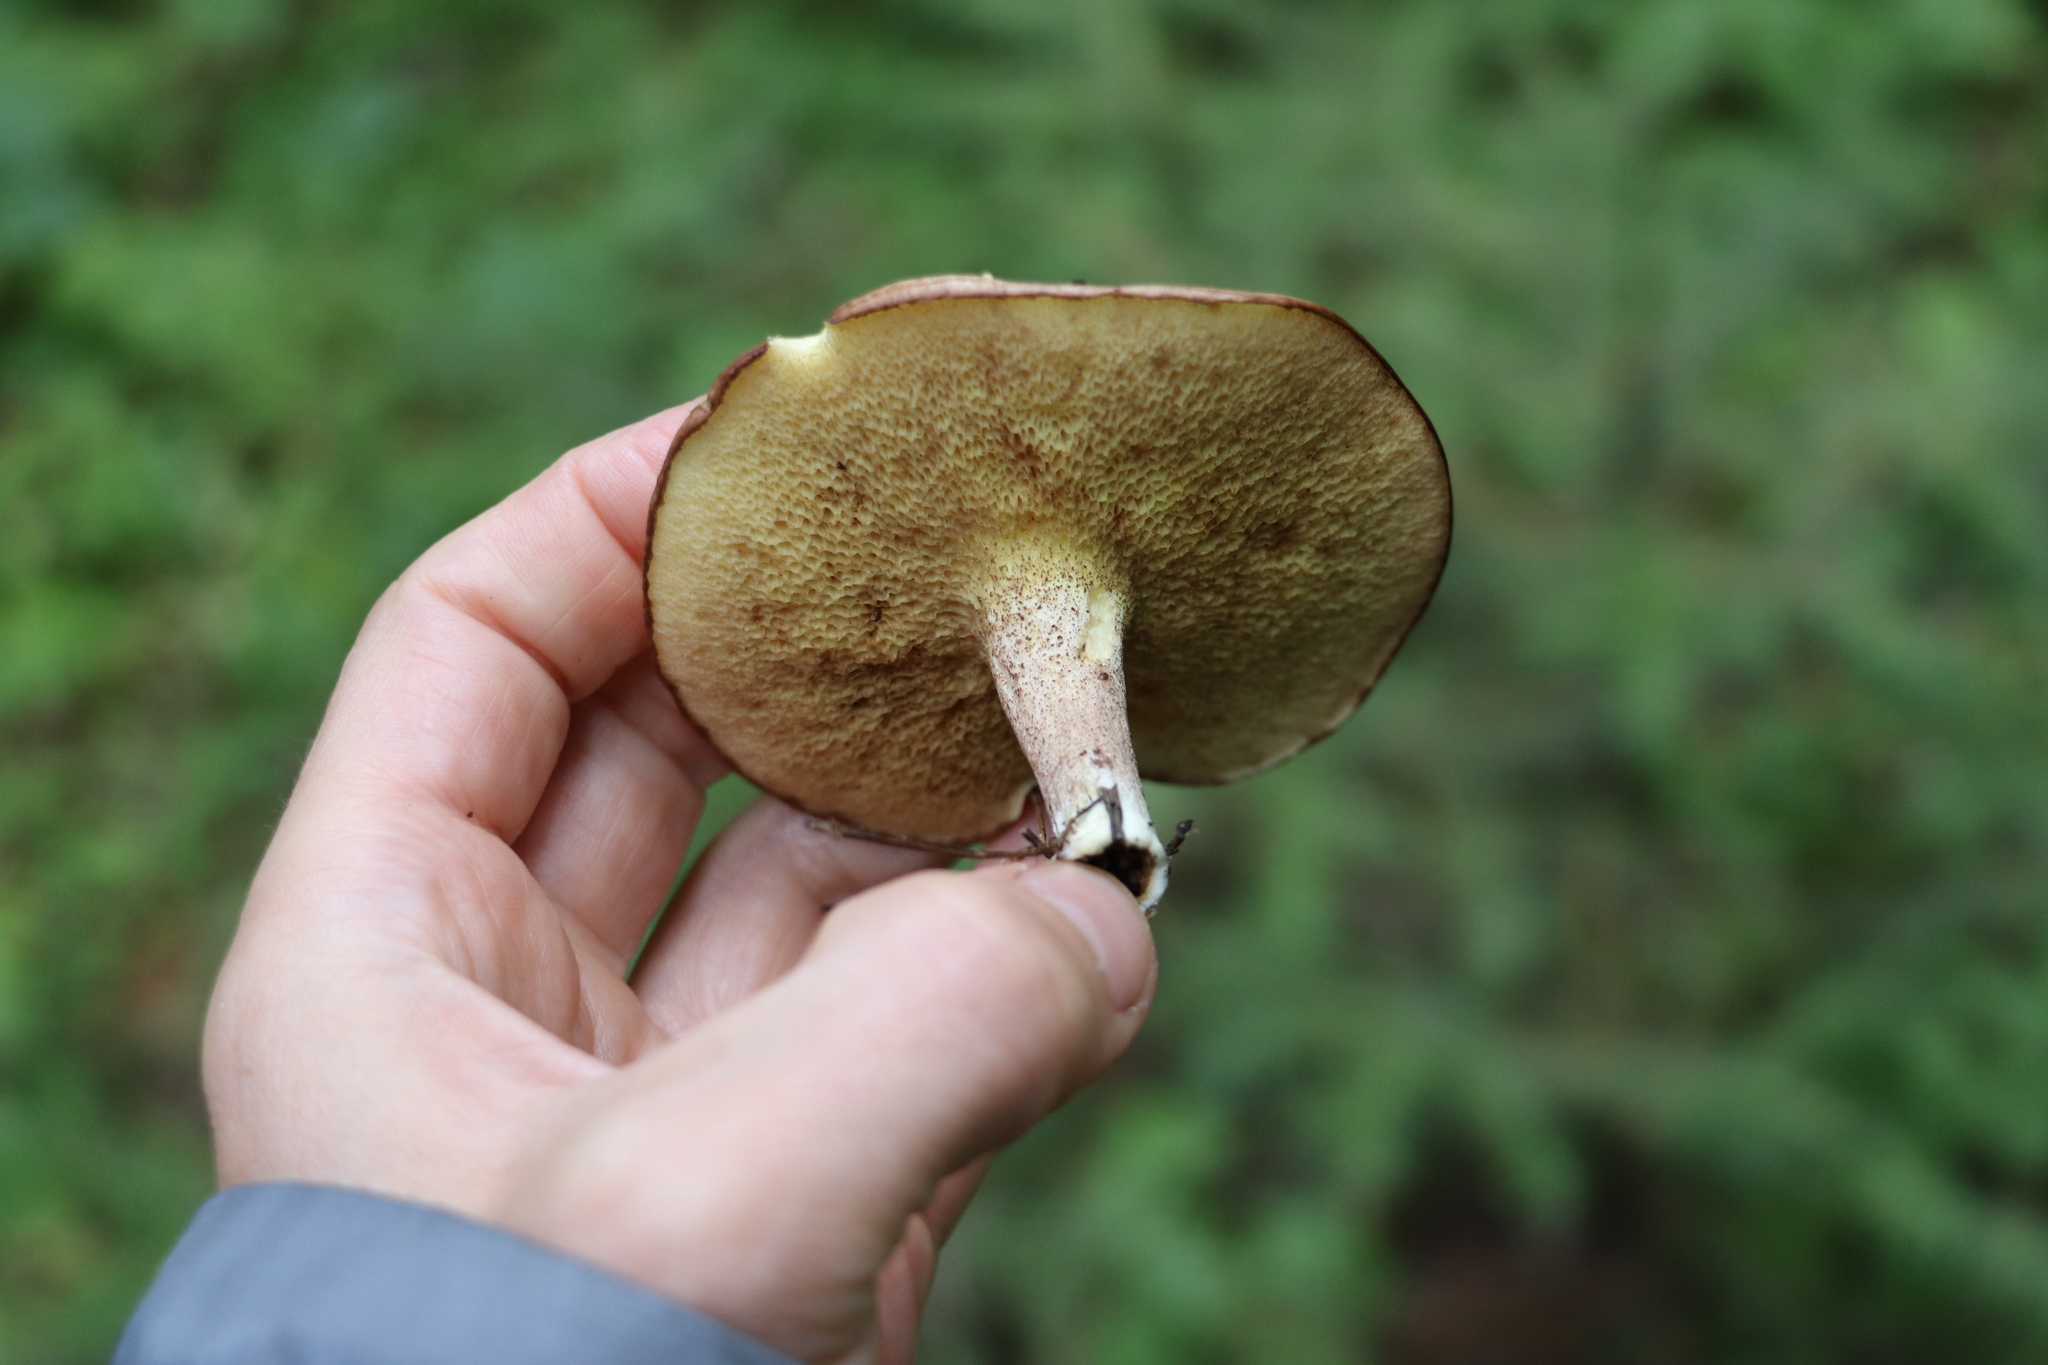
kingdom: Fungi
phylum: Basidiomycota
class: Agaricomycetes
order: Boletales
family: Suillaceae
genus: Suillus
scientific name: Suillus placidus
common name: Slippery white bolete
